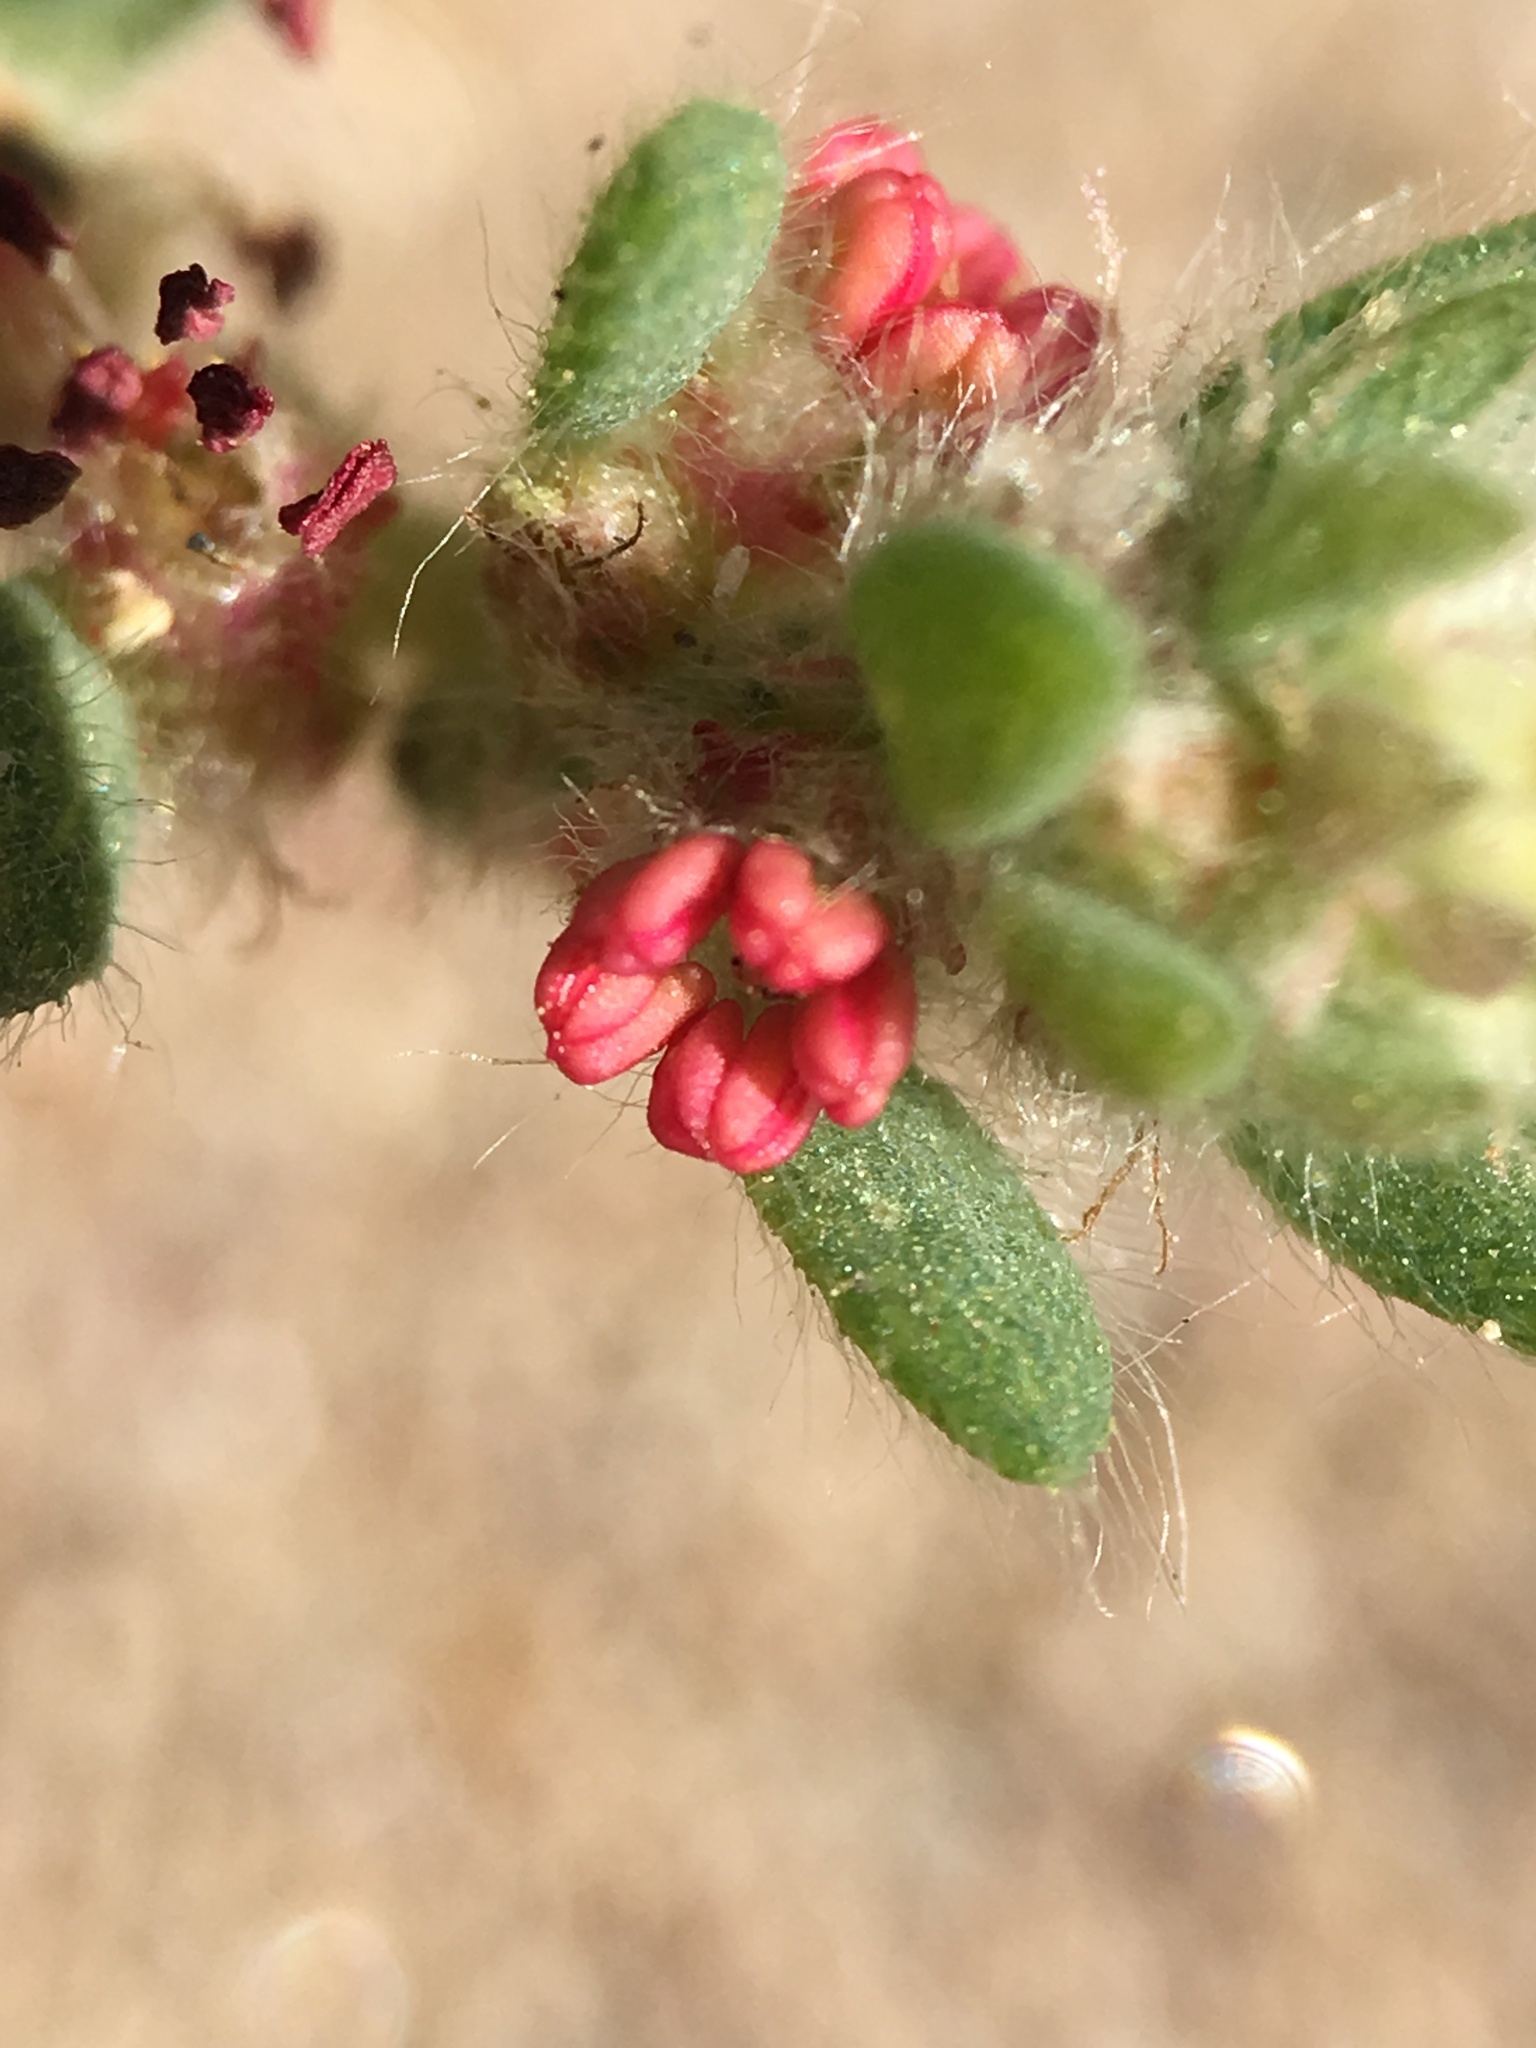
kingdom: Plantae
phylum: Tracheophyta
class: Magnoliopsida
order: Caryophyllales
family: Amaranthaceae
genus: Bassia
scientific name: Bassia hyssopifolia
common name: Fivehorn smotherweed
